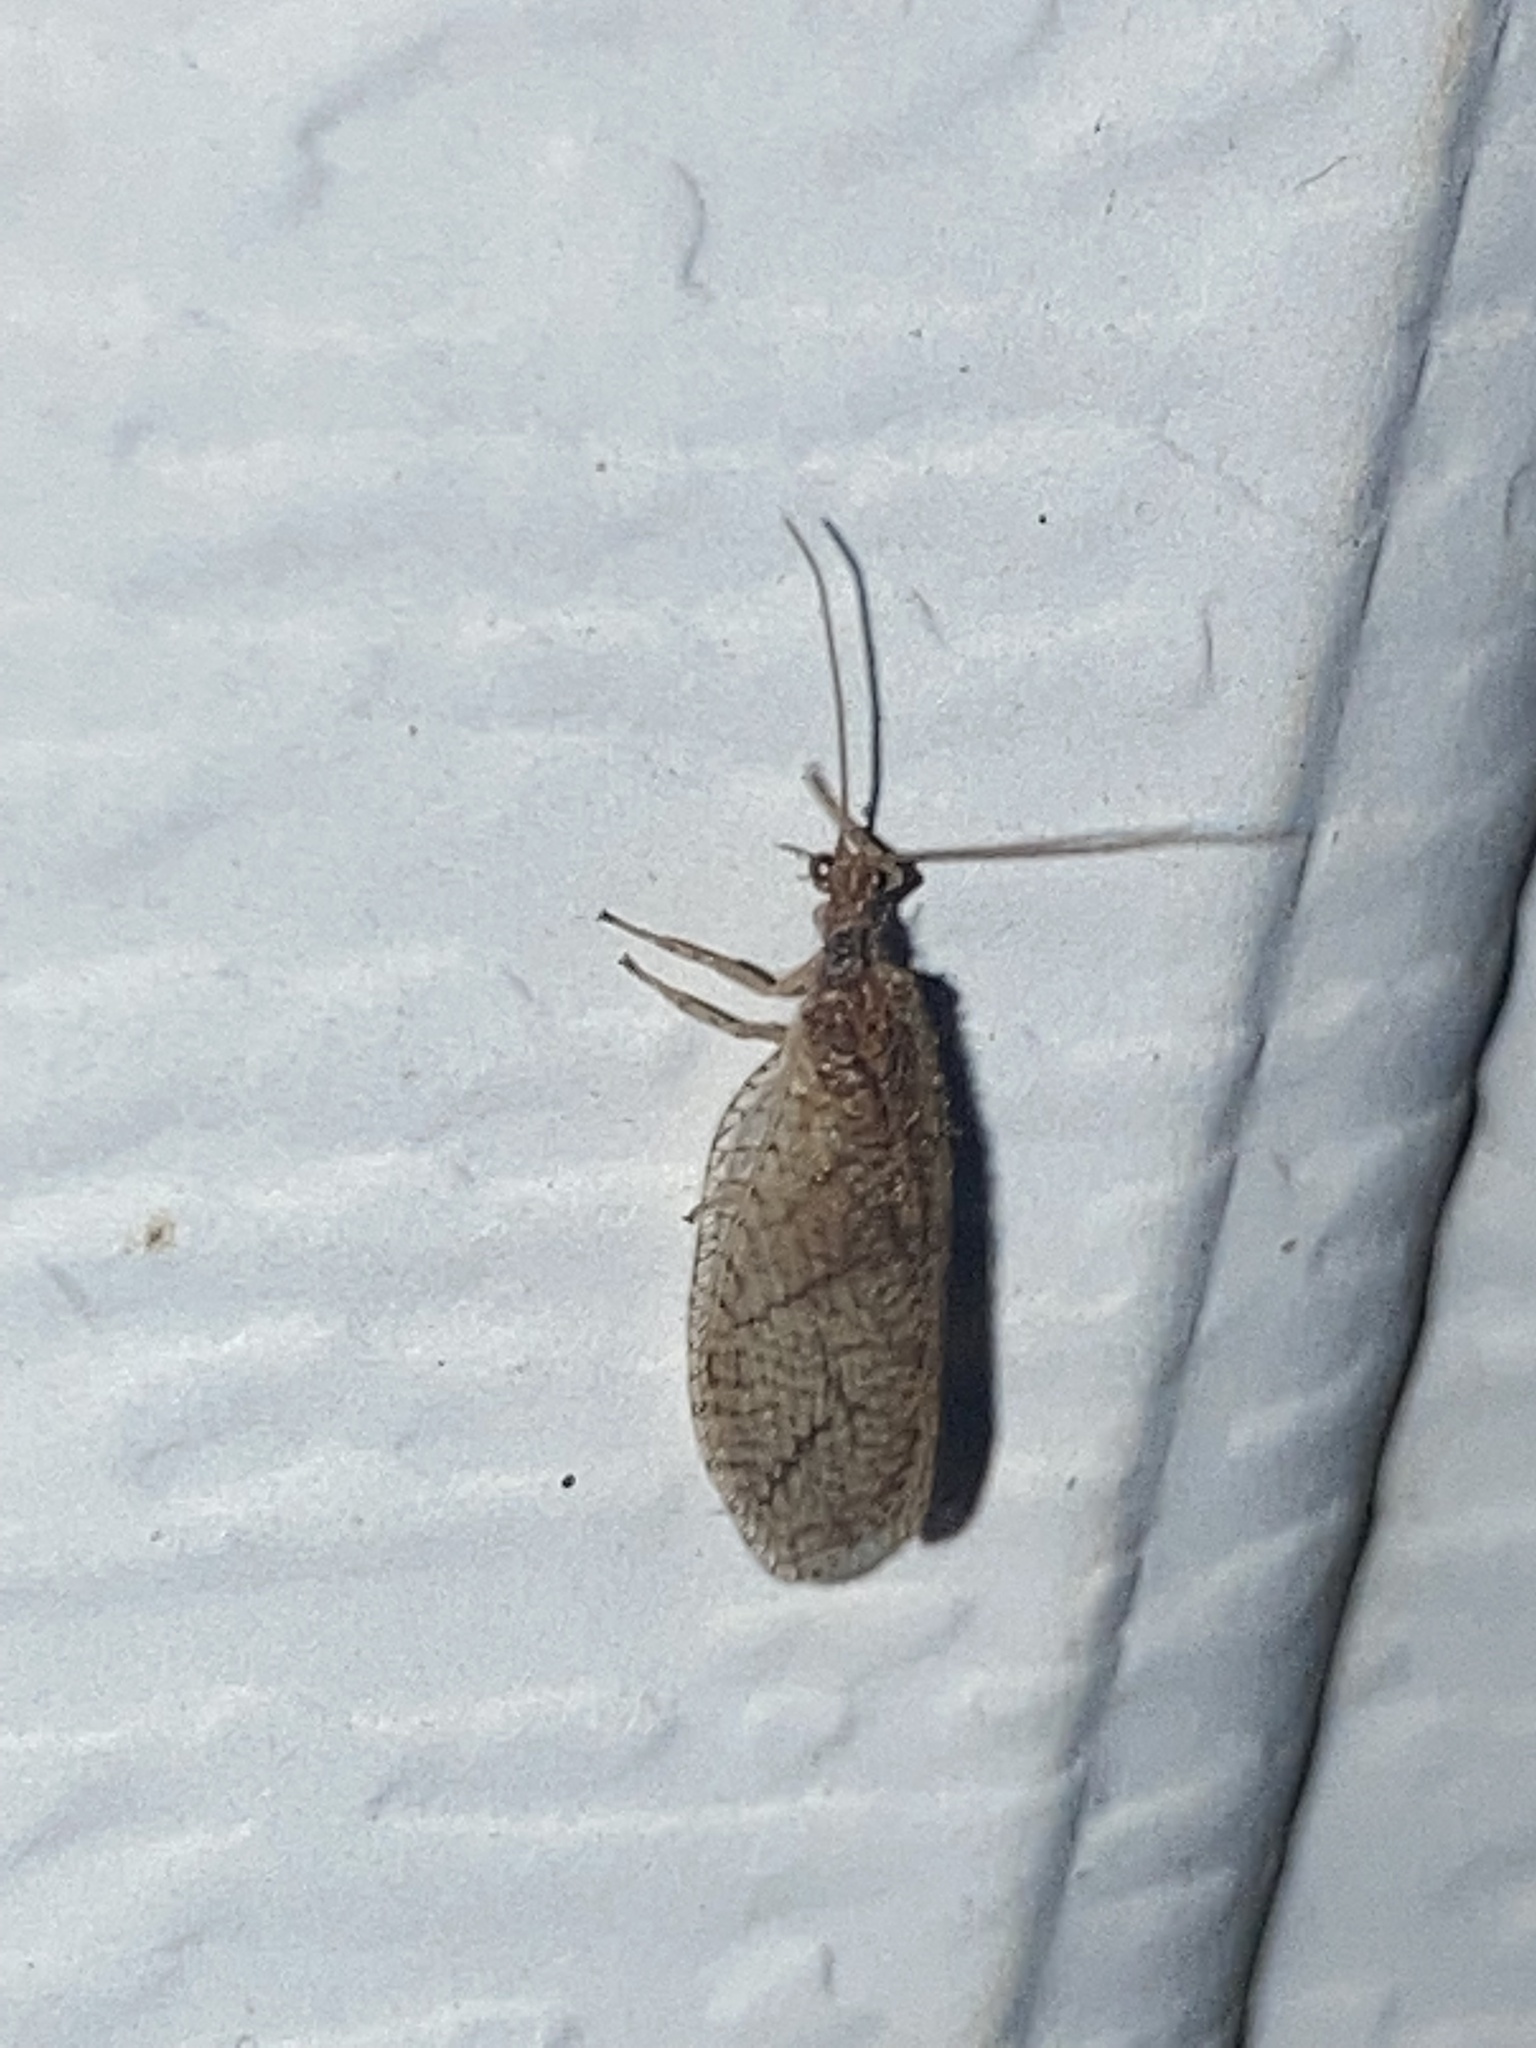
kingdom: Animalia
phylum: Arthropoda
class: Insecta
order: Neuroptera
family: Hemerobiidae
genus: Micromus
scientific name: Micromus posticus
